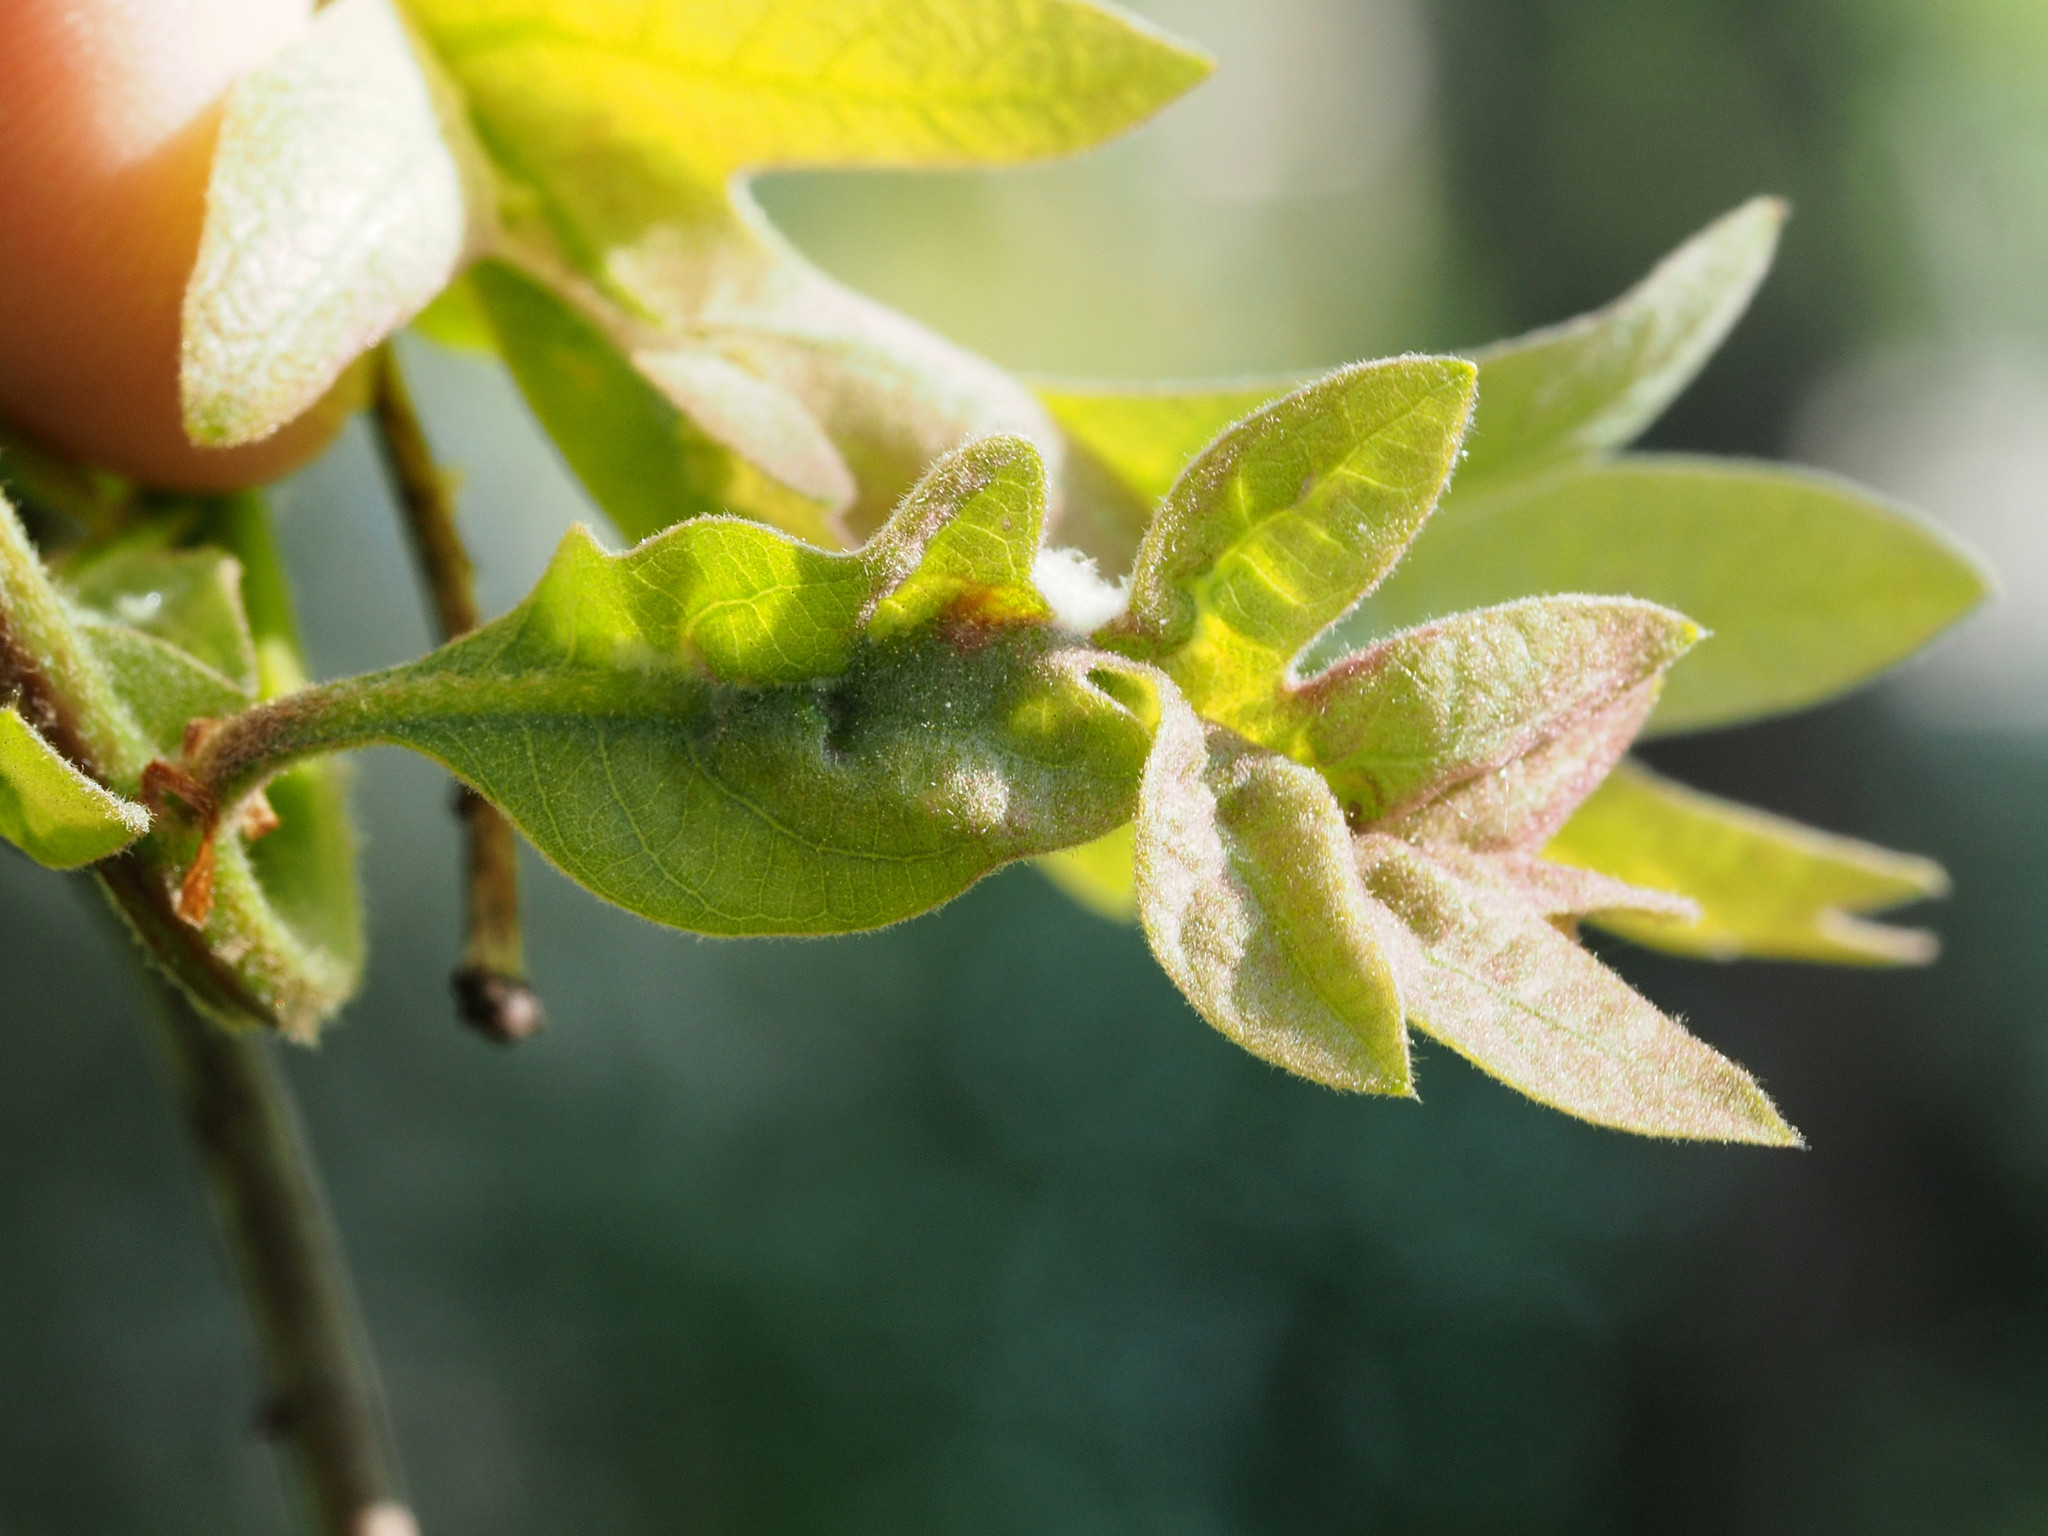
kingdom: Animalia
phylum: Arthropoda
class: Insecta
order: Diptera
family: Cecidomyiidae
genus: Macrodiplosis
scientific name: Macrodiplosis niveipila
